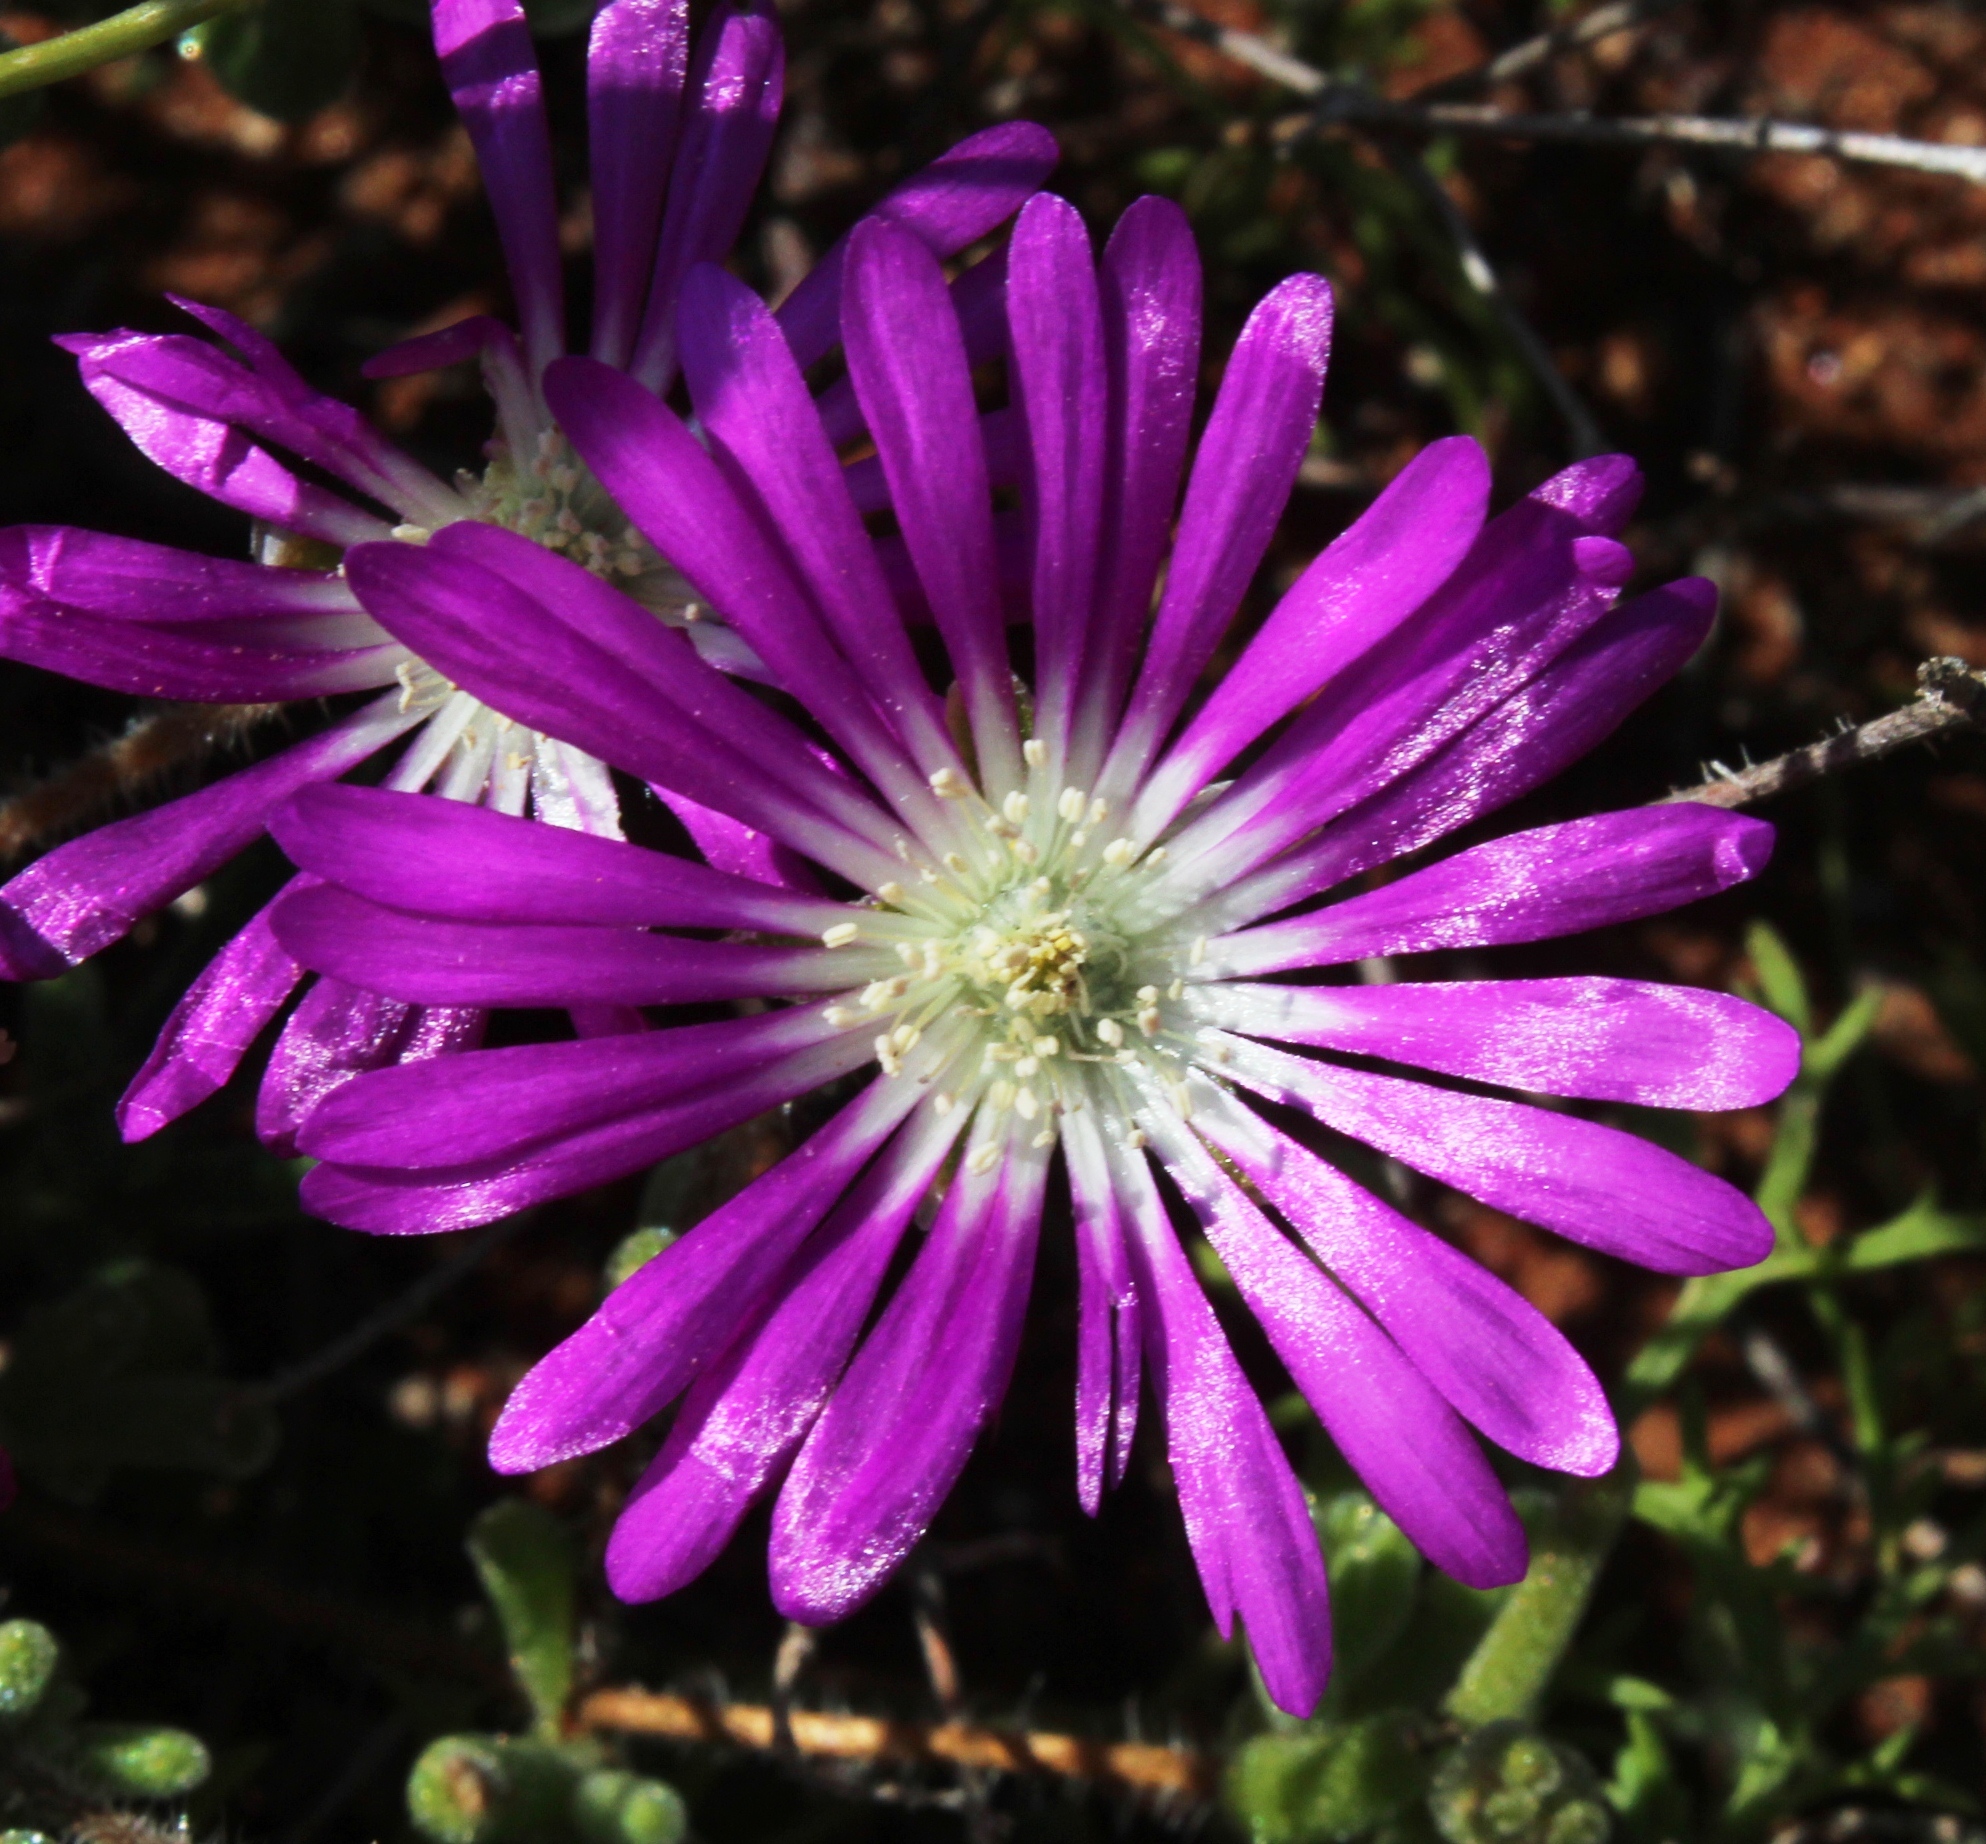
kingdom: Plantae
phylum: Tracheophyta
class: Magnoliopsida
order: Caryophyllales
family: Aizoaceae
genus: Drosanthemum
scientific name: Drosanthemum latipetalum
